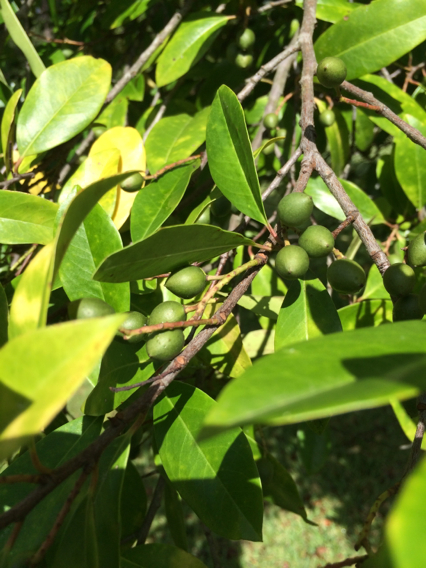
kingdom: Plantae
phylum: Tracheophyta
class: Magnoliopsida
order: Rosales
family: Rosaceae
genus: Prunus
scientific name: Prunus caroliniana
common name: Carolina laurel cherry
